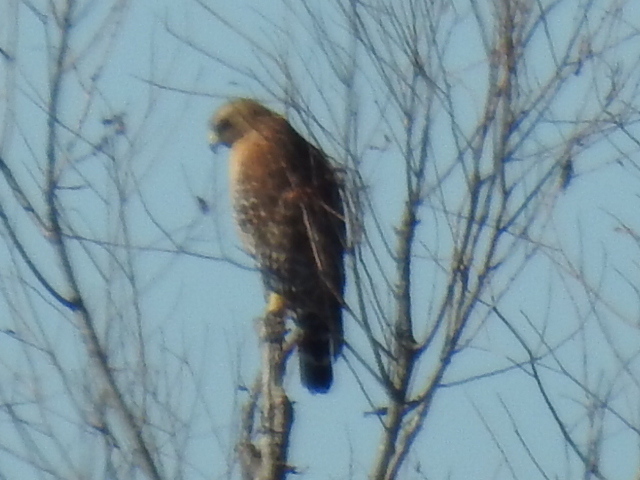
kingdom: Animalia
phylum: Chordata
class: Aves
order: Accipitriformes
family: Accipitridae
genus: Buteo
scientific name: Buteo lineatus
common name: Red-shouldered hawk
